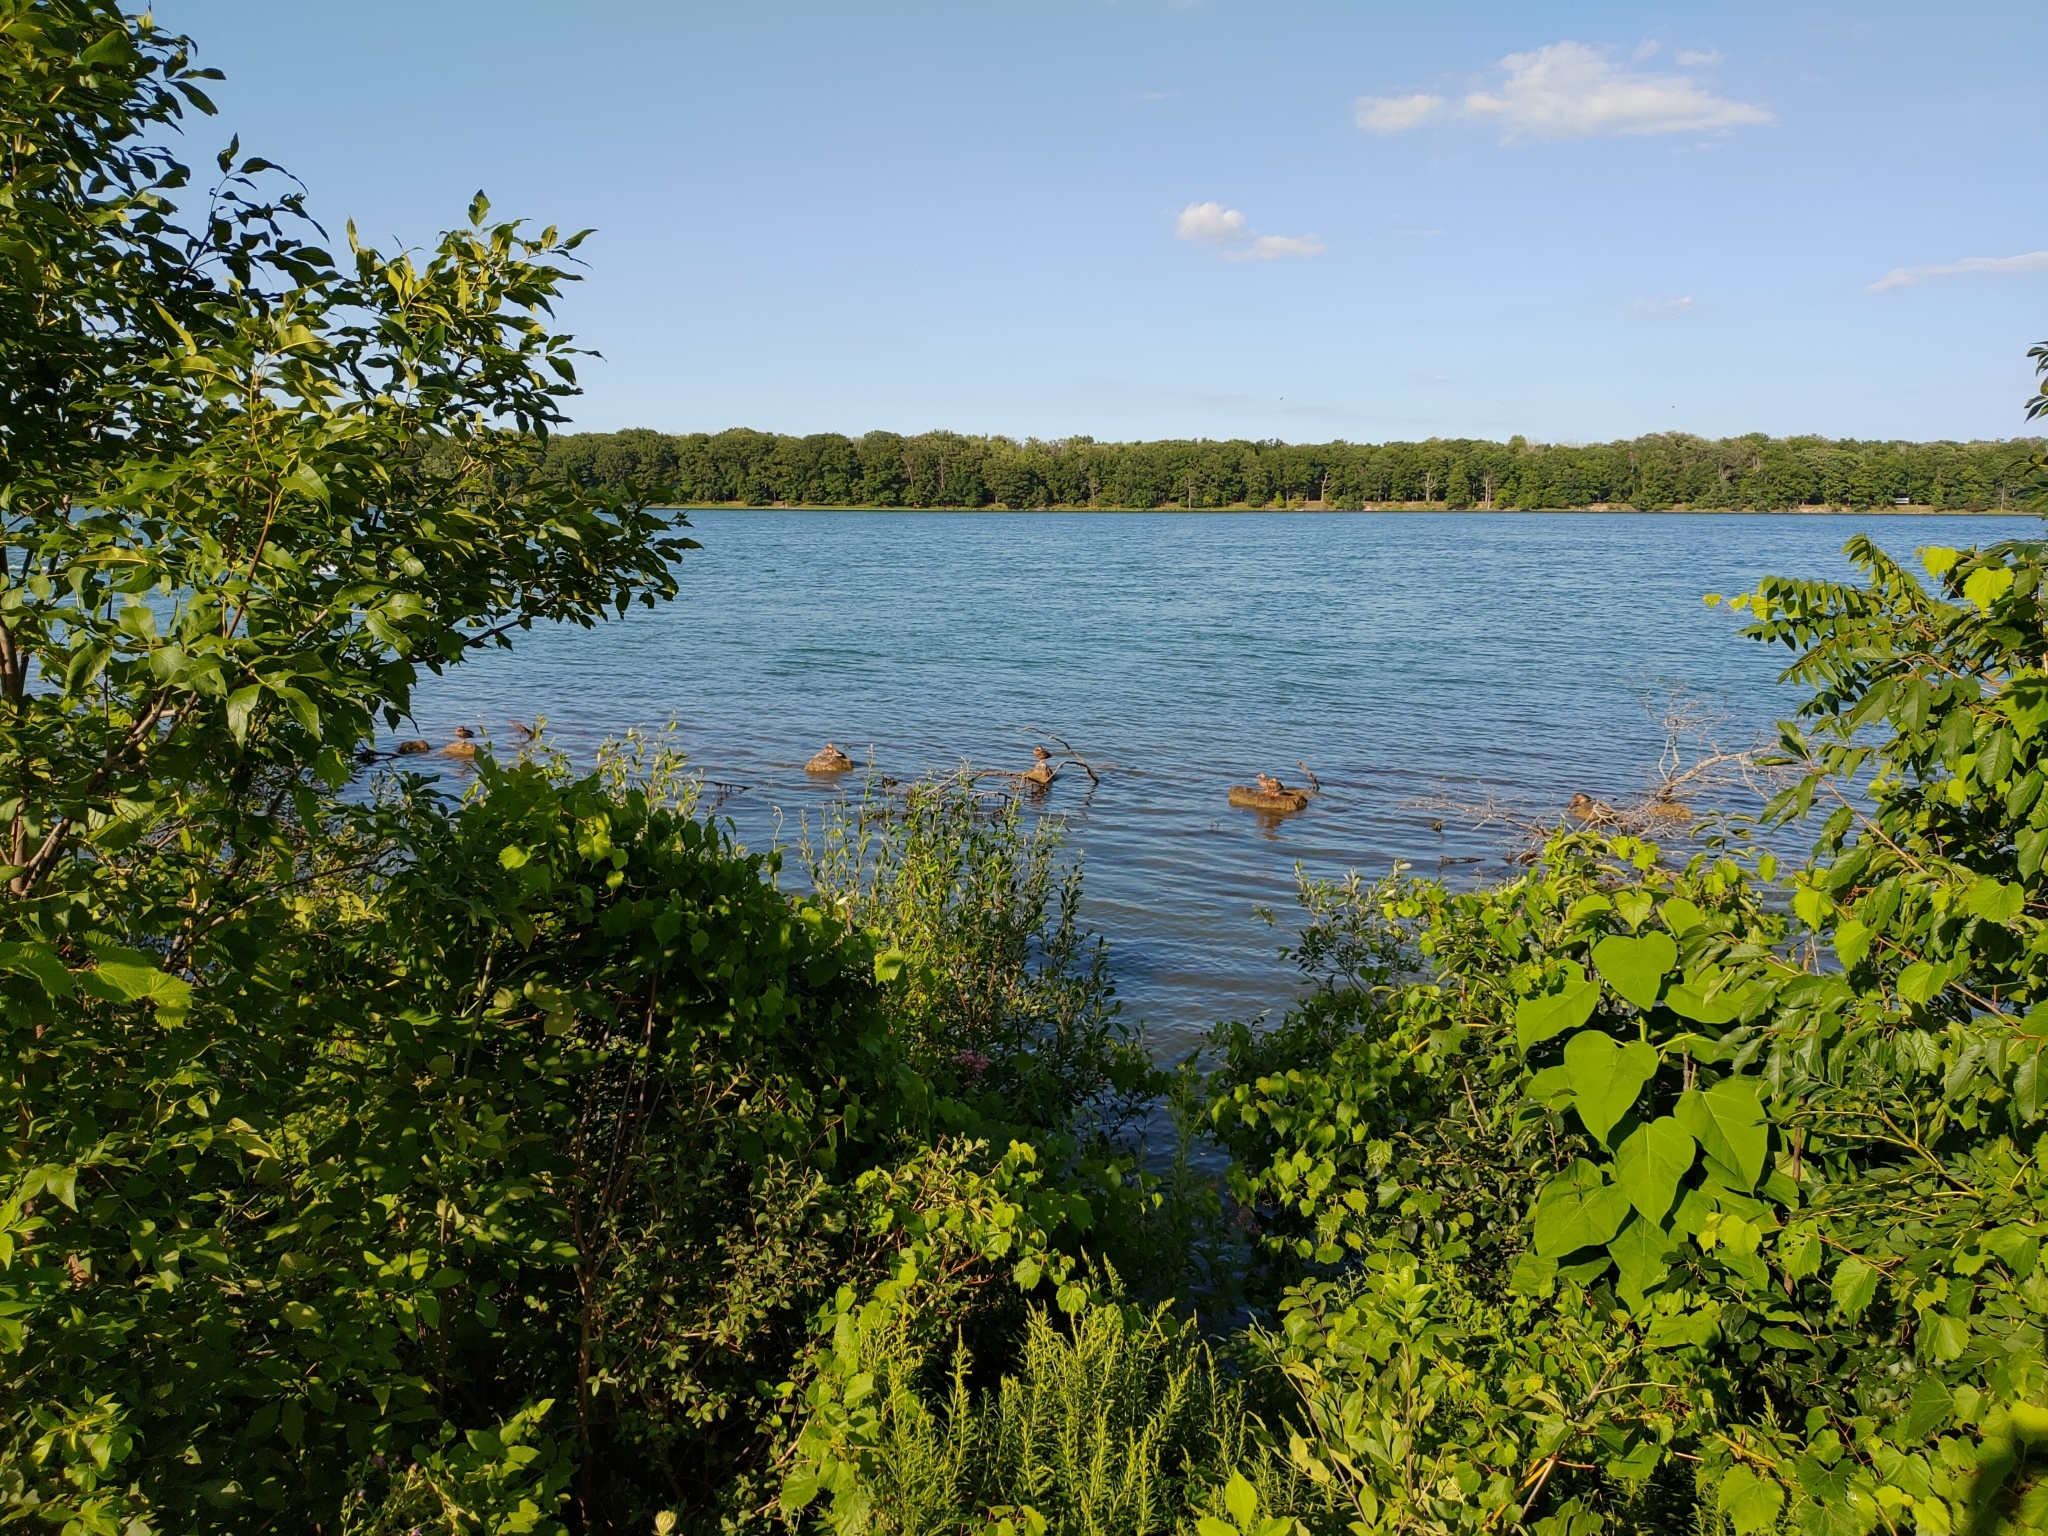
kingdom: Animalia
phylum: Chordata
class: Aves
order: Anseriformes
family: Anatidae
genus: Anas
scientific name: Anas platyrhynchos
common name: Mallard
